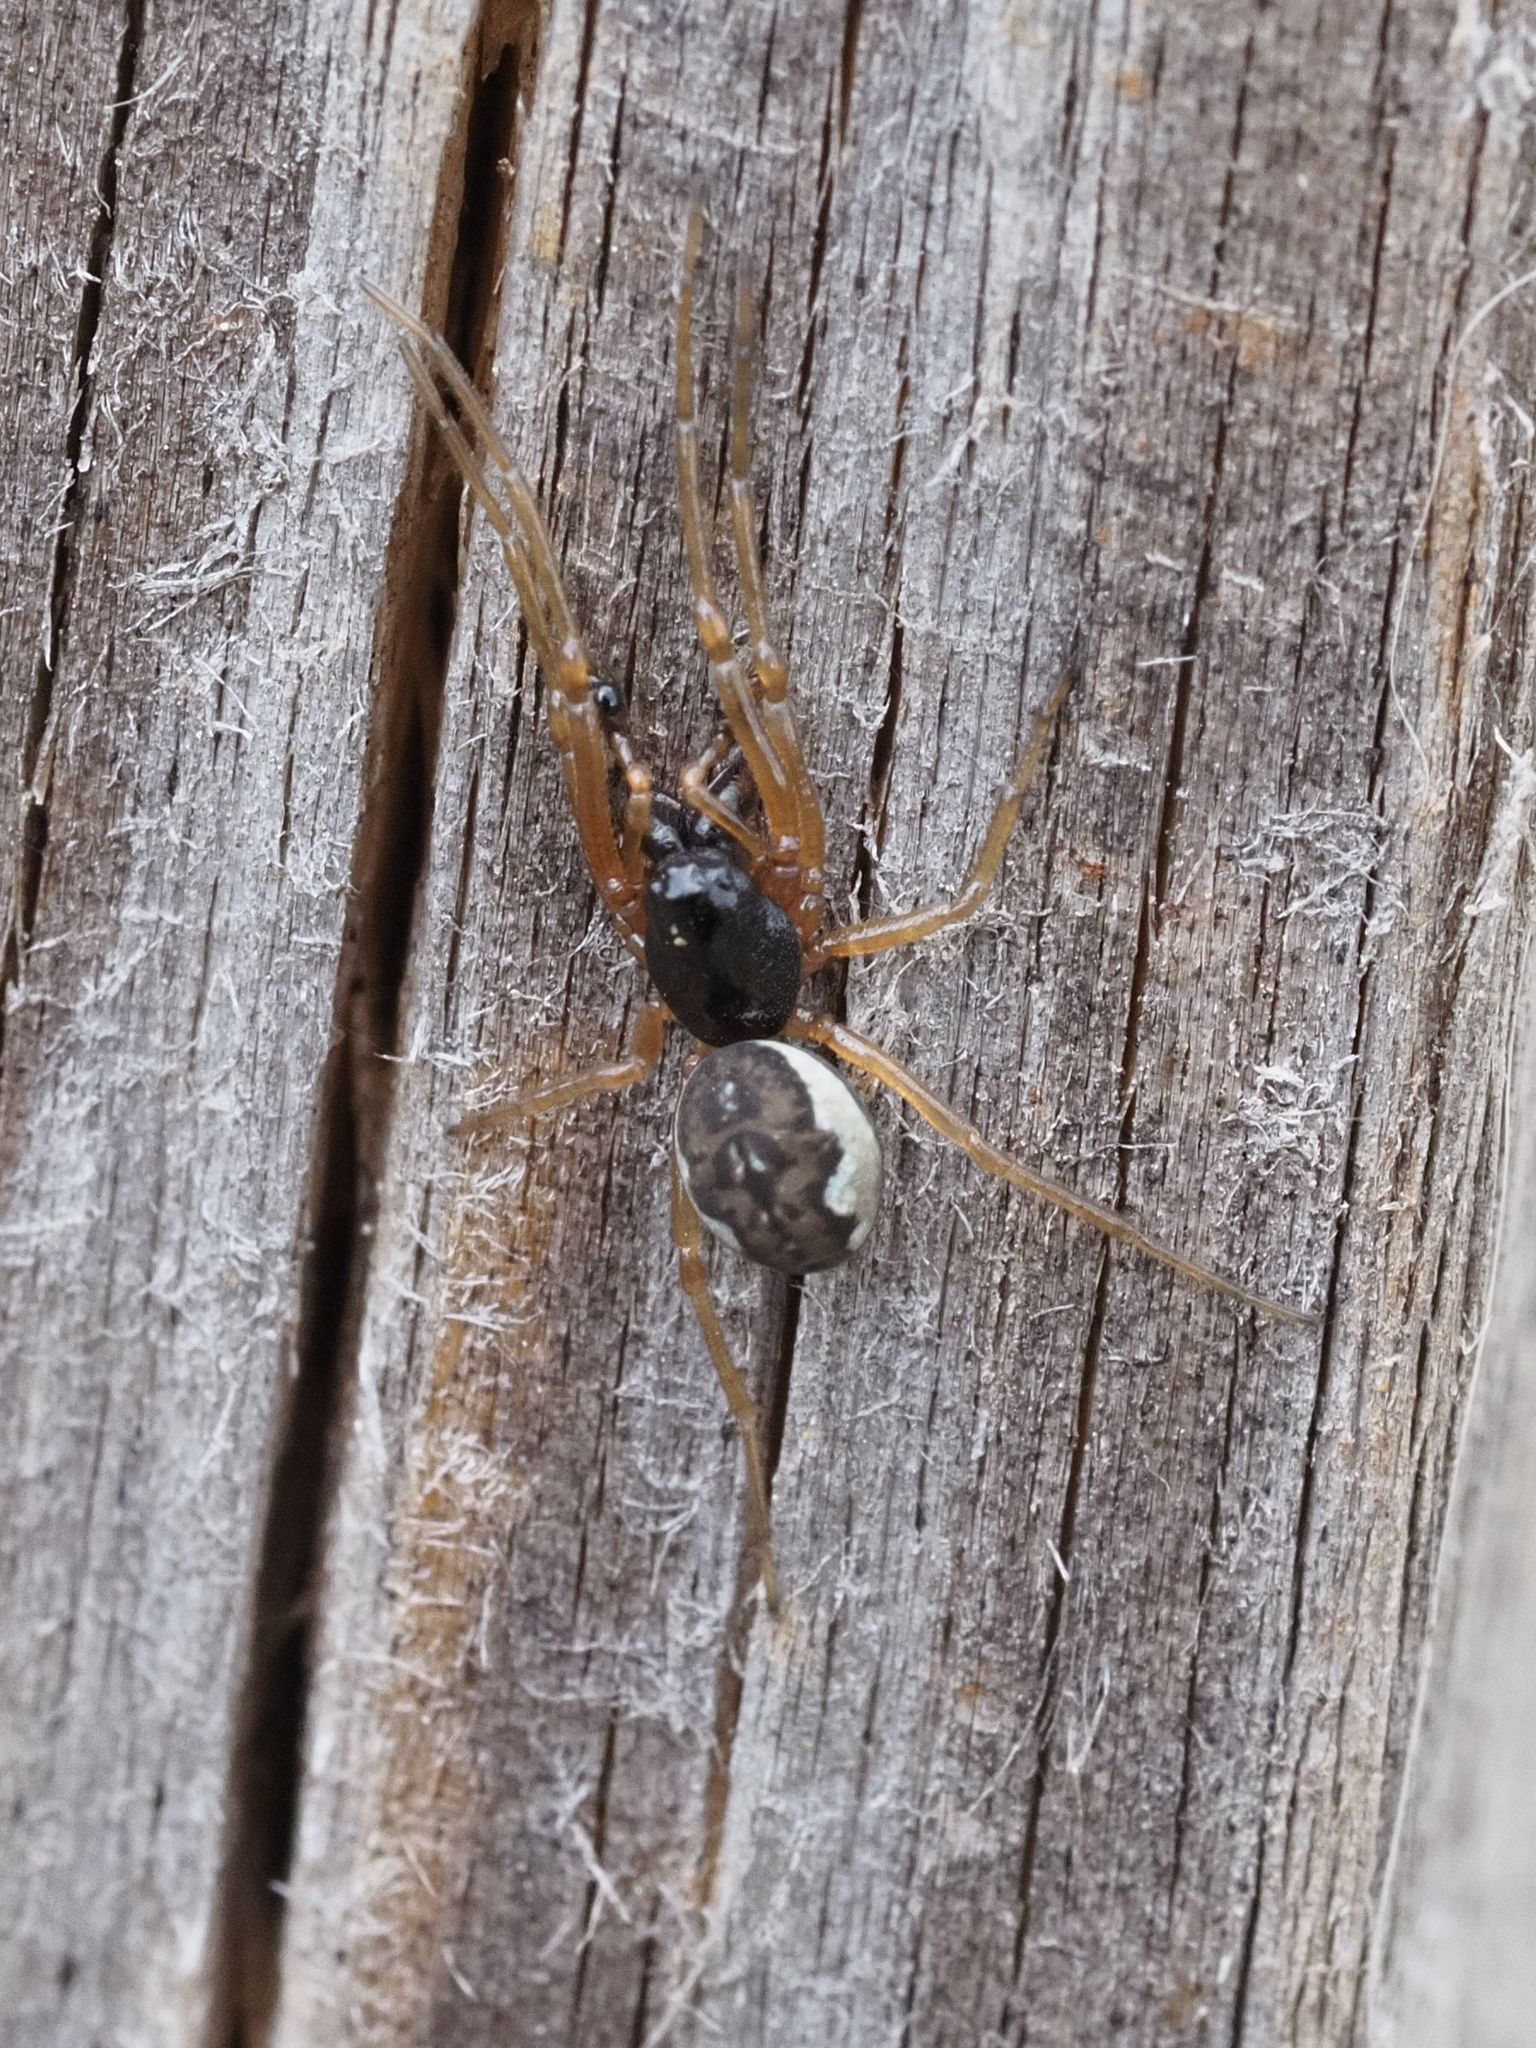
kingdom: Animalia
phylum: Arthropoda
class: Arachnida
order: Araneae
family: Tetragnathidae
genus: Pachygnatha
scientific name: Pachygnatha degeeri
